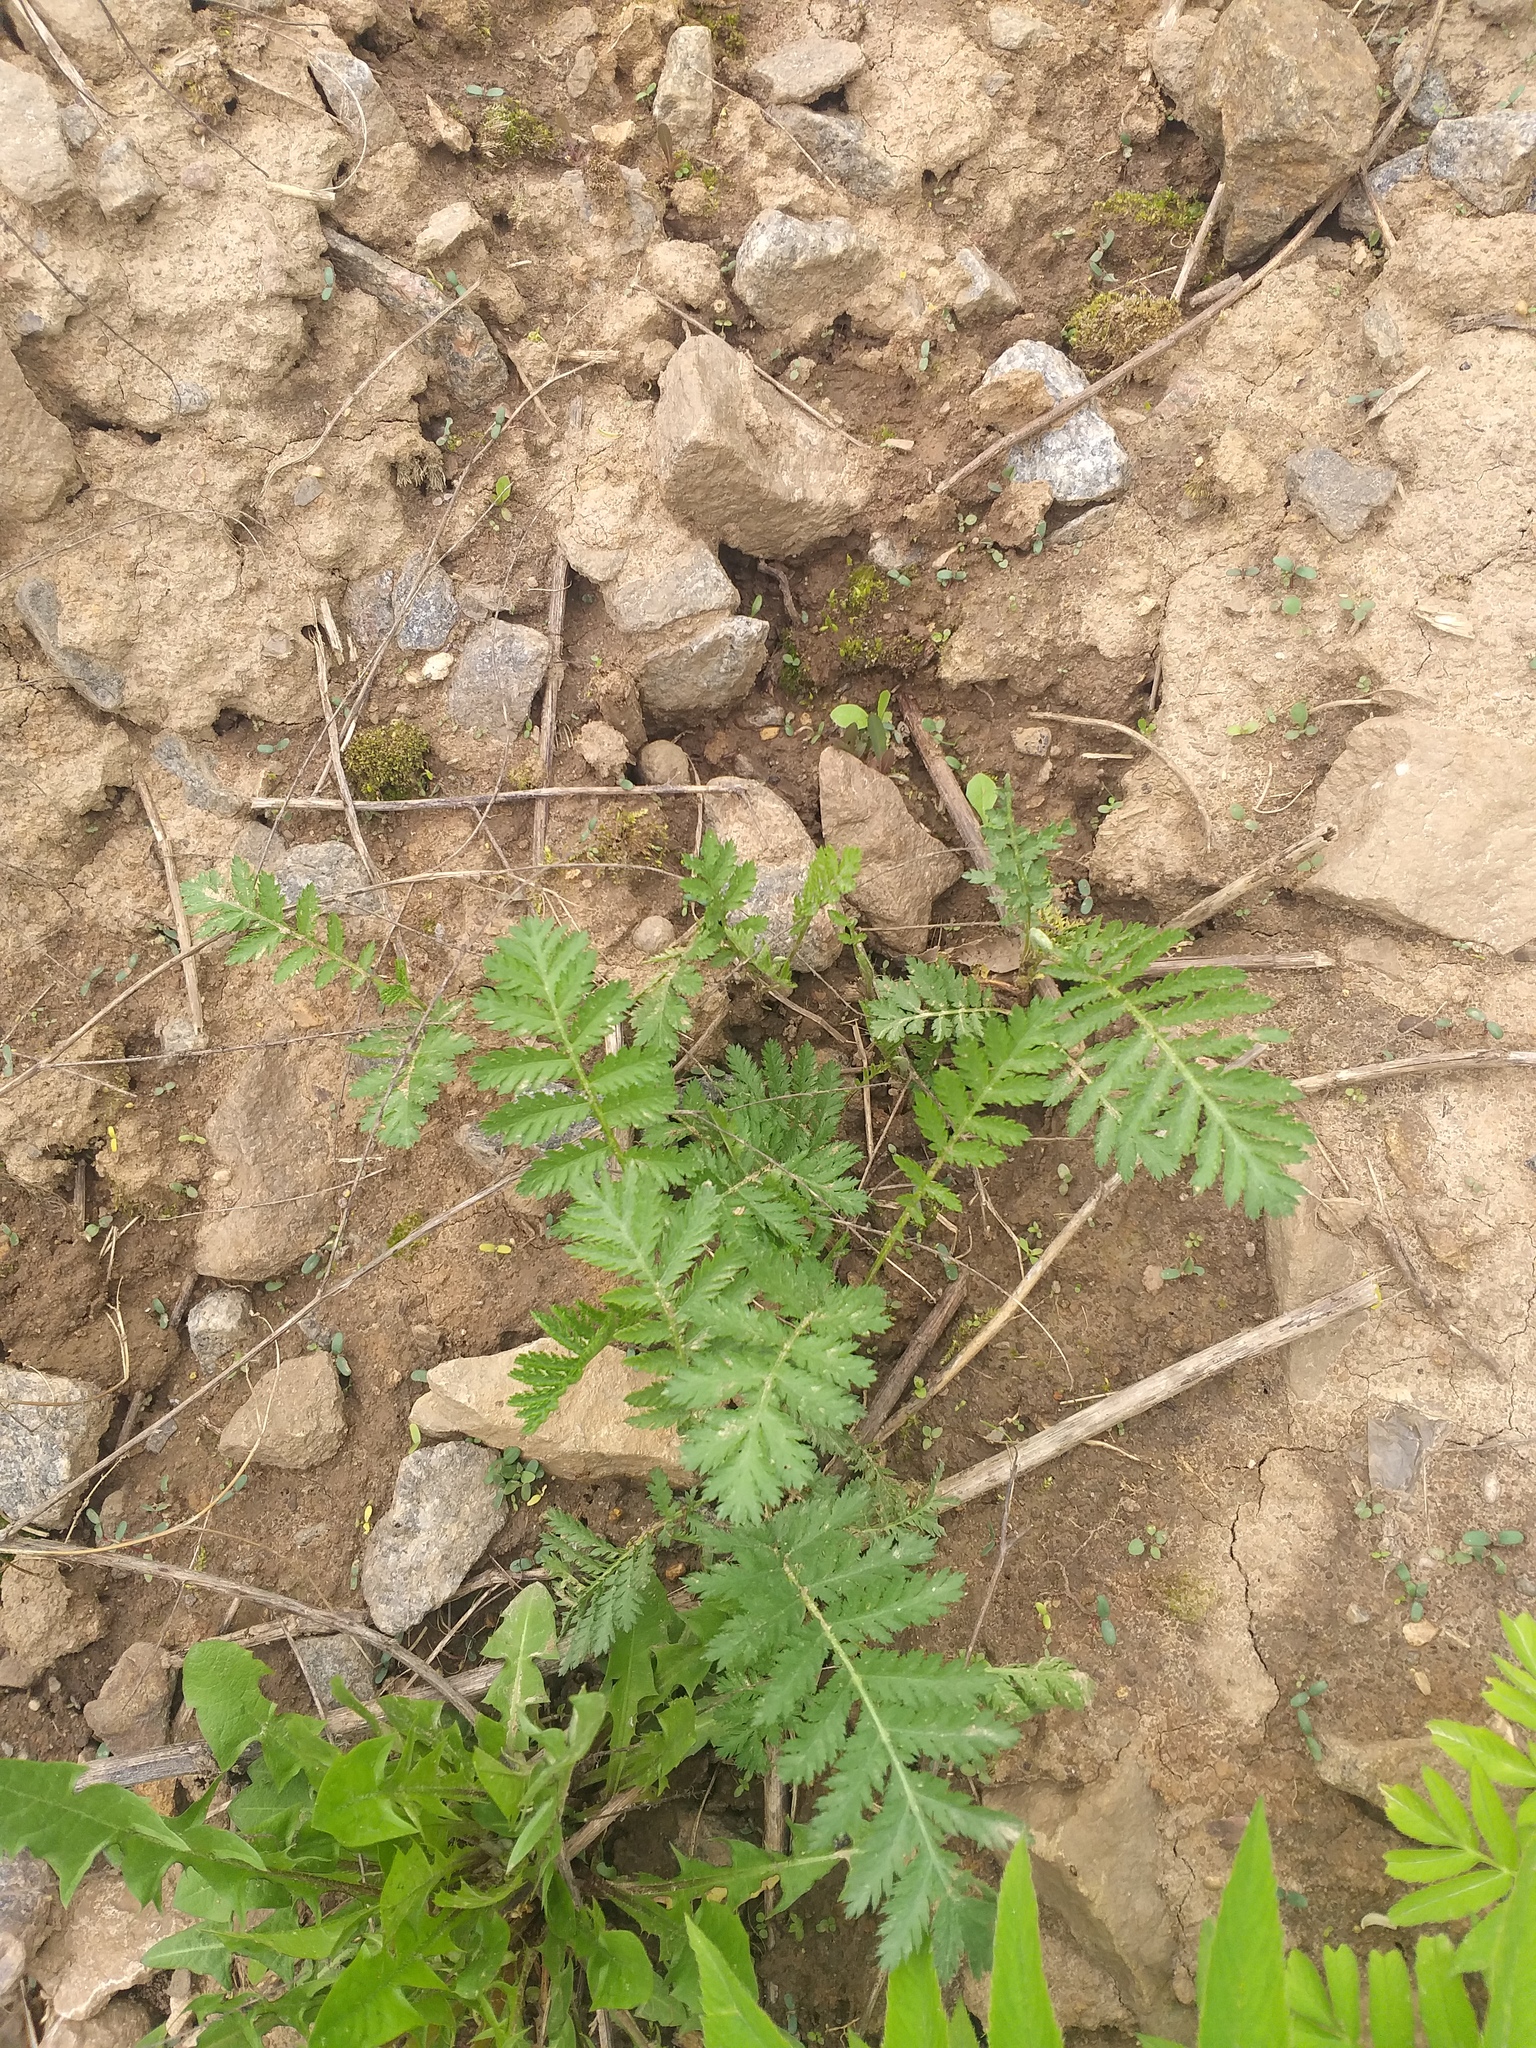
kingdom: Plantae
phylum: Tracheophyta
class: Magnoliopsida
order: Asterales
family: Asteraceae
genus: Tanacetum
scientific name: Tanacetum vulgare
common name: Common tansy
